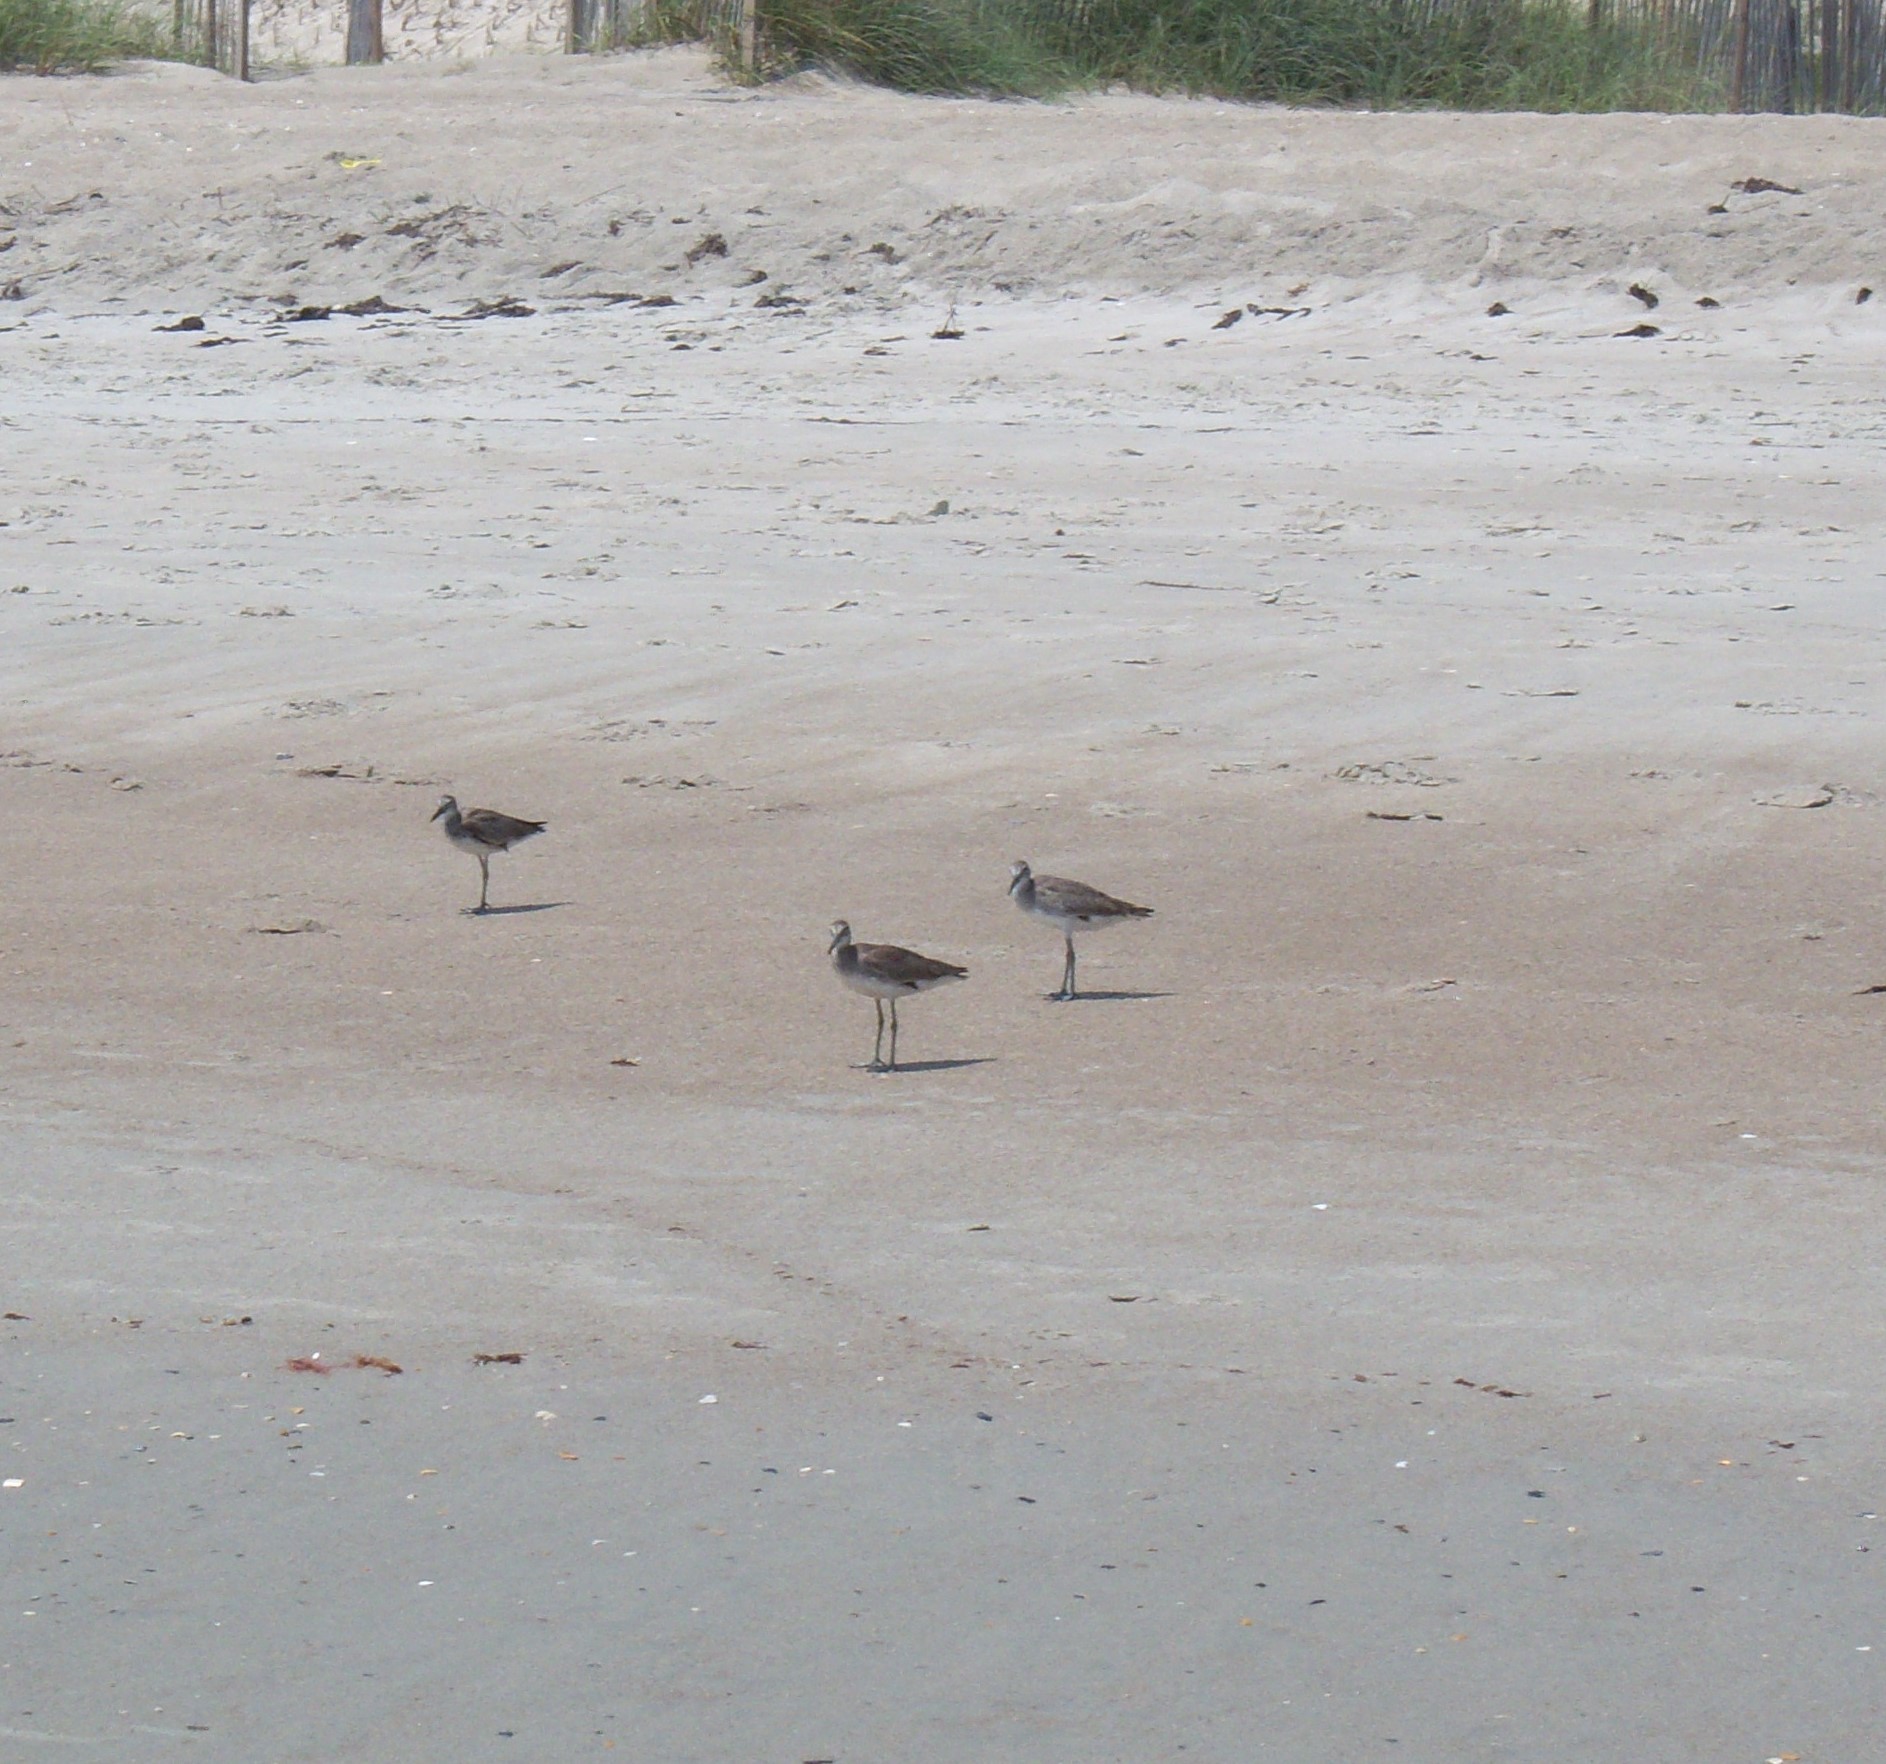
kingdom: Animalia
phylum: Chordata
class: Aves
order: Charadriiformes
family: Scolopacidae
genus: Tringa
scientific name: Tringa semipalmata
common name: Willet
